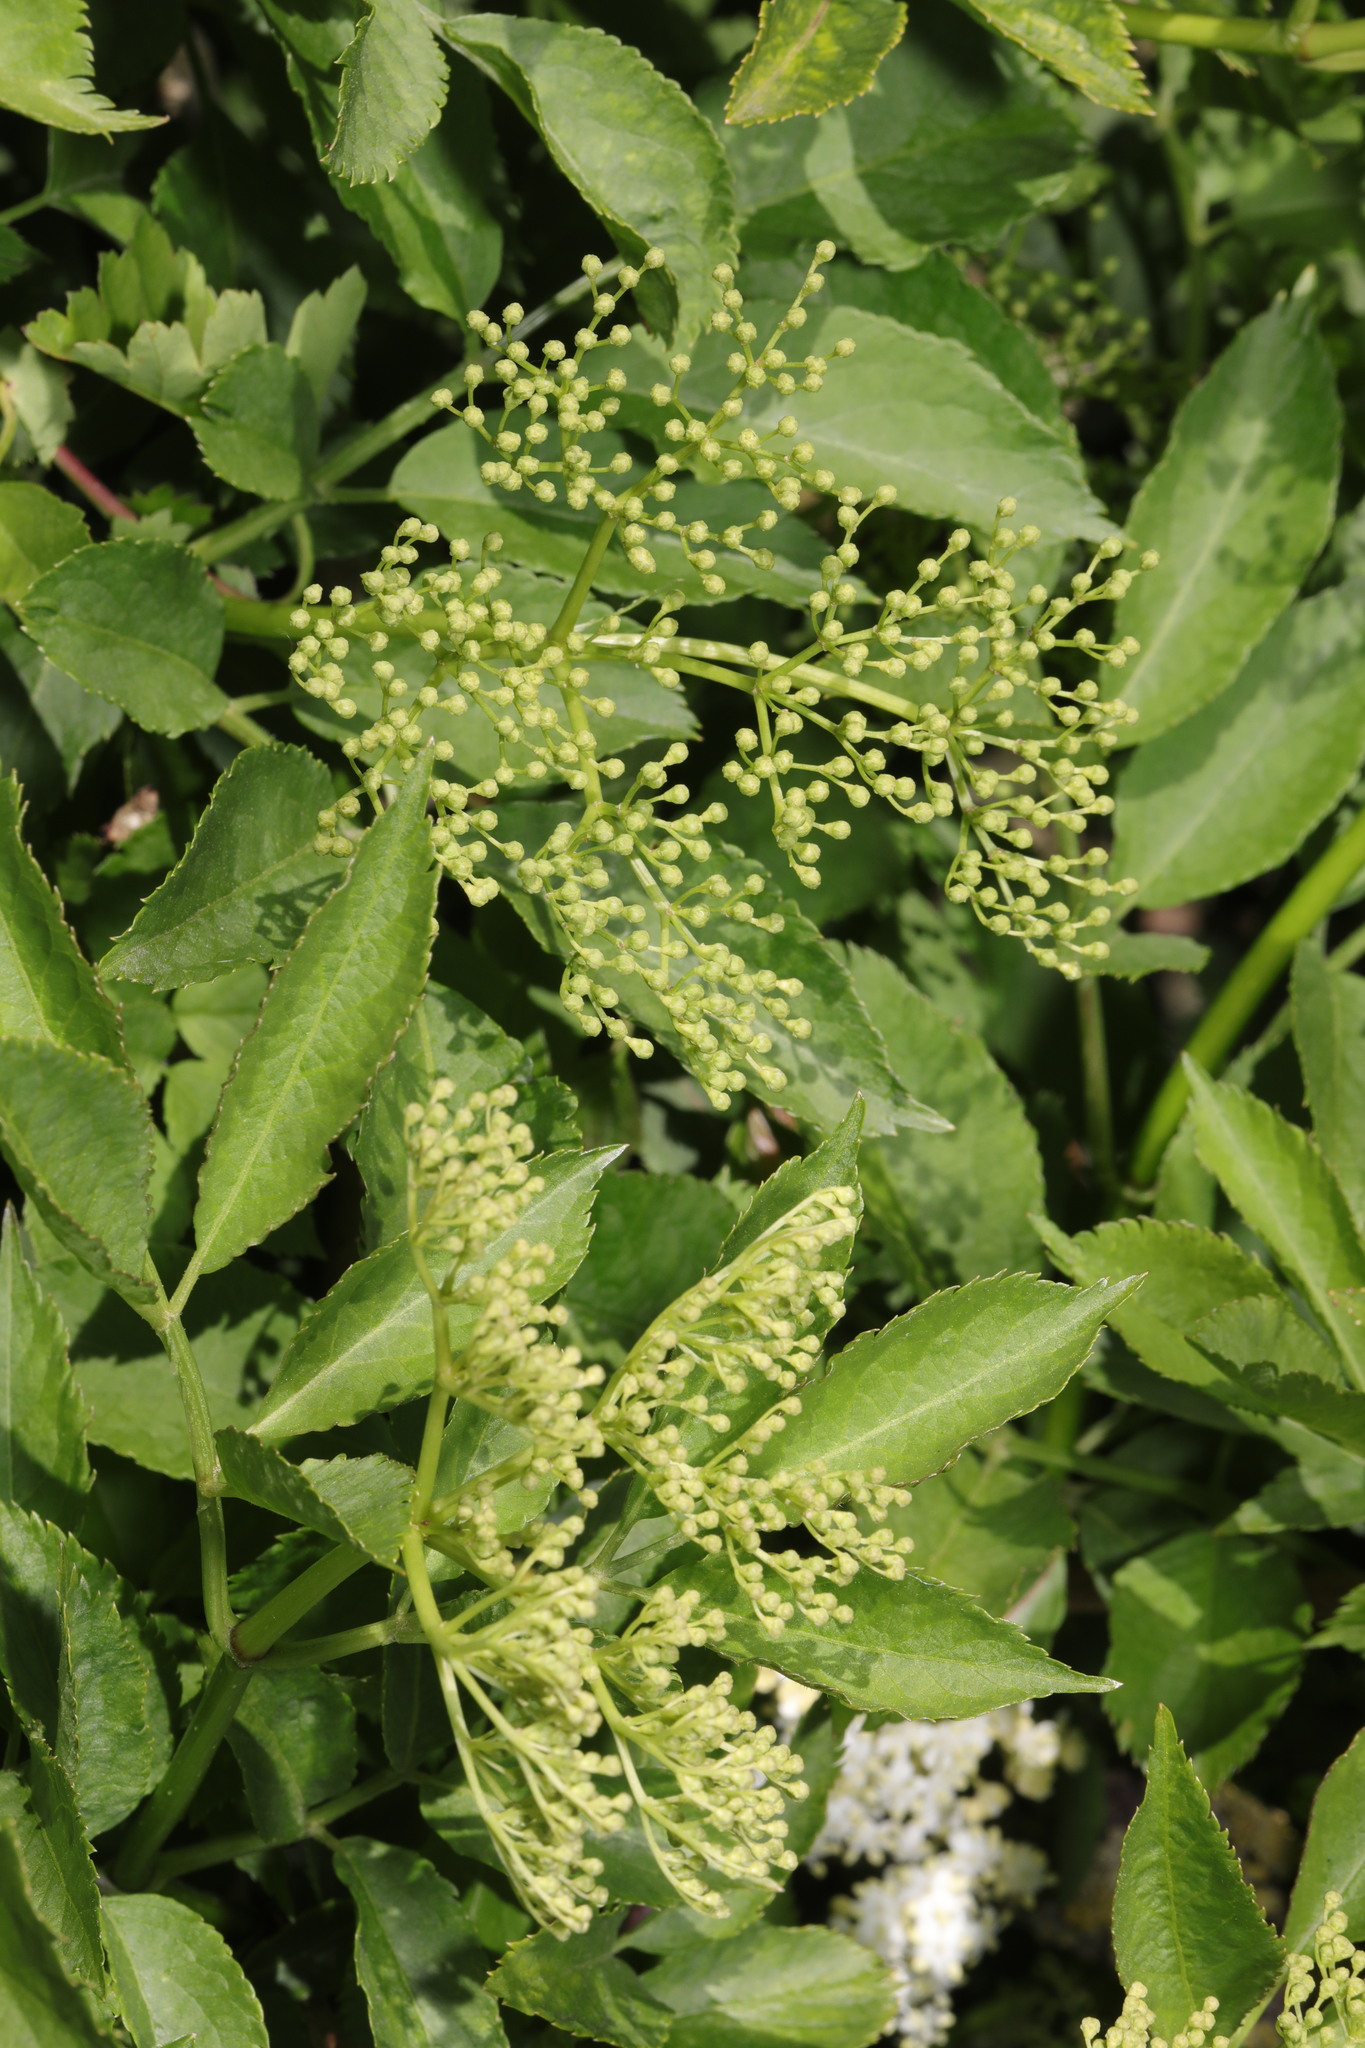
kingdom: Plantae
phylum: Tracheophyta
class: Magnoliopsida
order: Dipsacales
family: Viburnaceae
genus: Sambucus
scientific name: Sambucus nigra
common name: Elder
